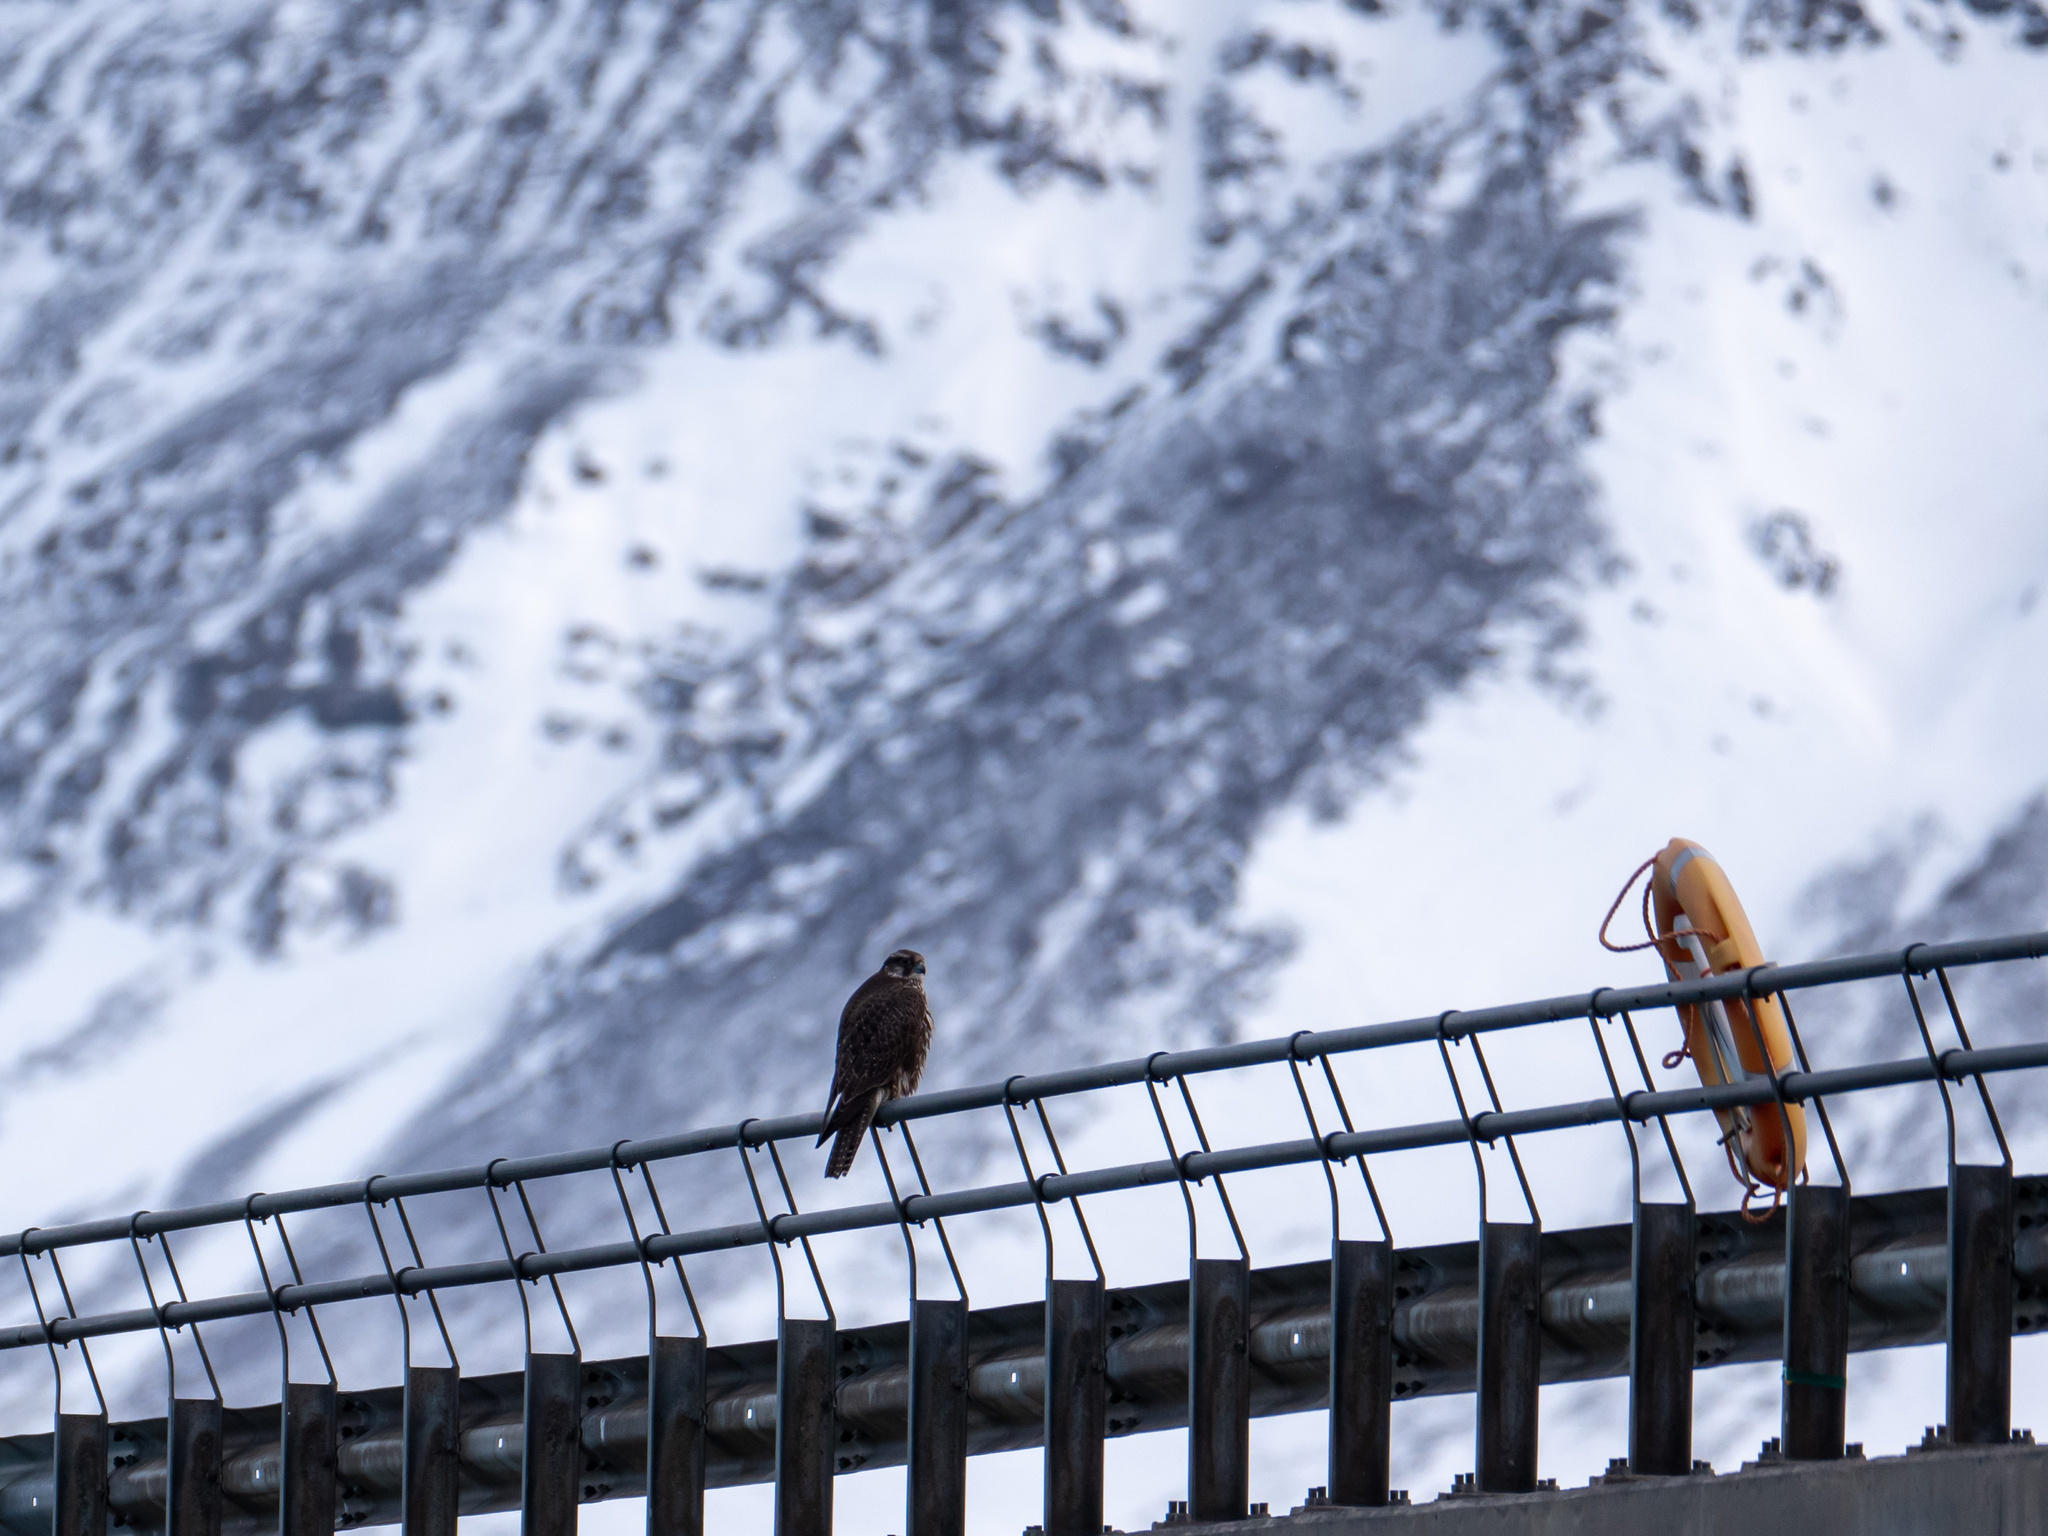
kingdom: Animalia
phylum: Chordata
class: Aves
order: Falconiformes
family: Falconidae
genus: Falco
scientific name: Falco rusticolus
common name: Gyrfalcon
